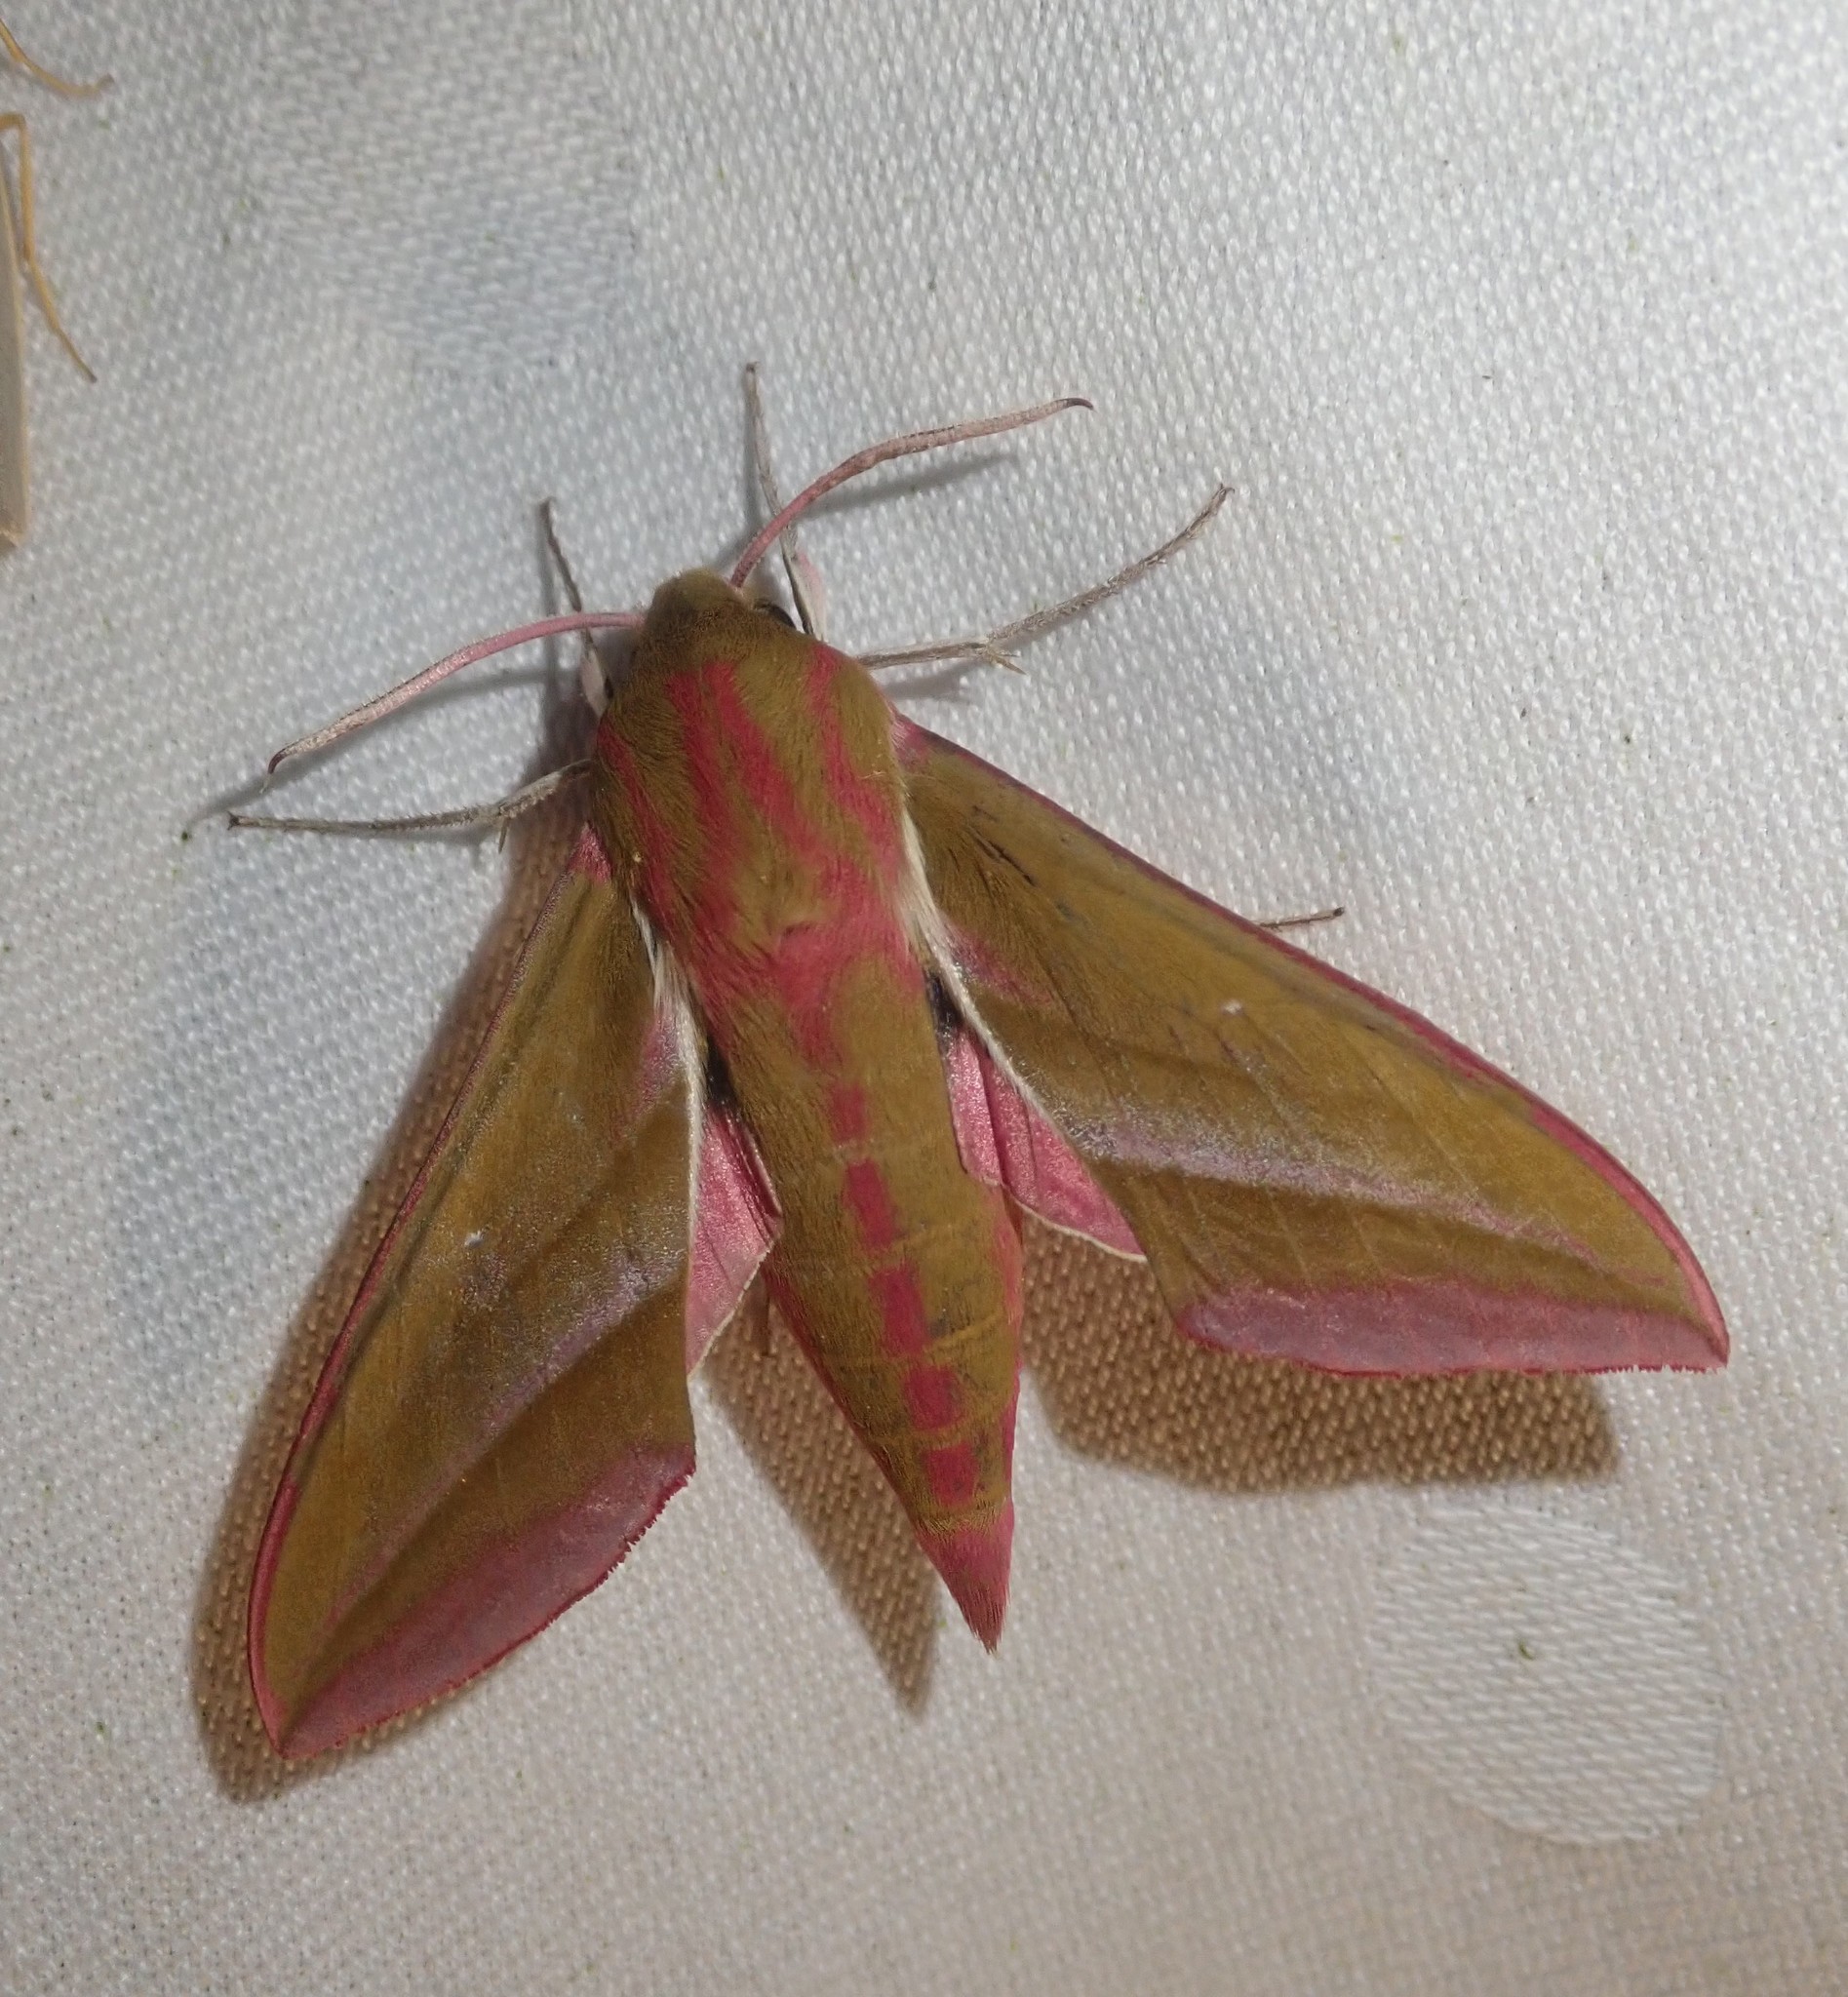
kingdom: Animalia
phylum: Arthropoda
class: Insecta
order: Lepidoptera
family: Sphingidae
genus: Deilephila
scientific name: Deilephila elpenor
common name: Elephant hawk-moth
